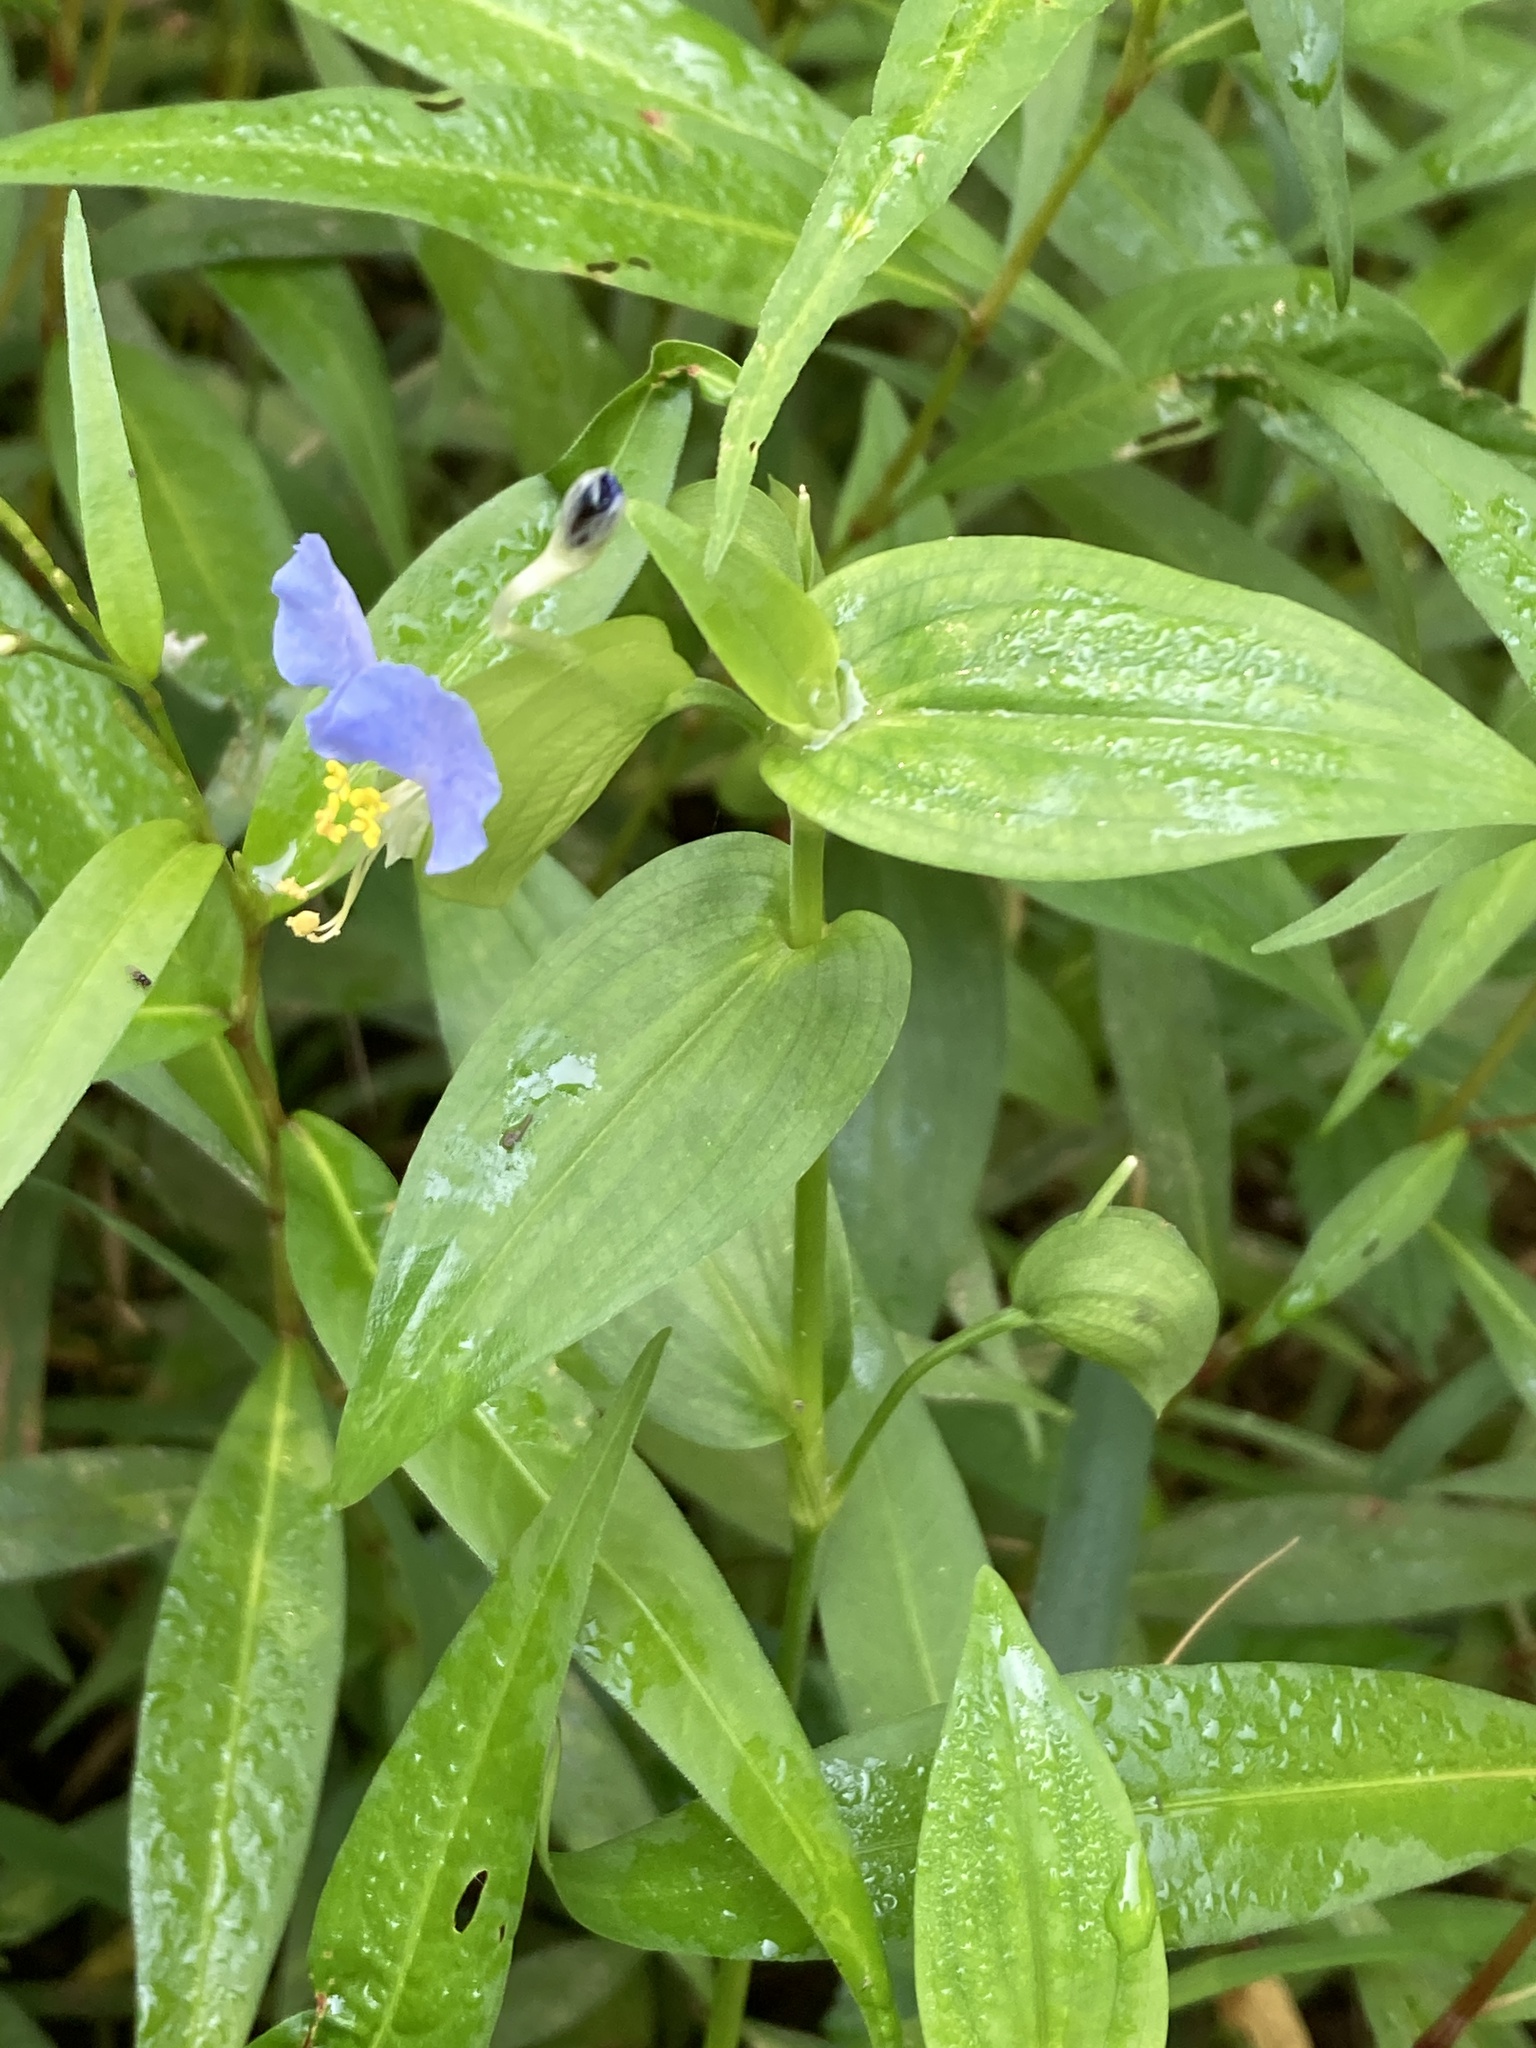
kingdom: Plantae
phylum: Tracheophyta
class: Liliopsida
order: Commelinales
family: Commelinaceae
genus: Commelina
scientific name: Commelina communis
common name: Asiatic dayflower
